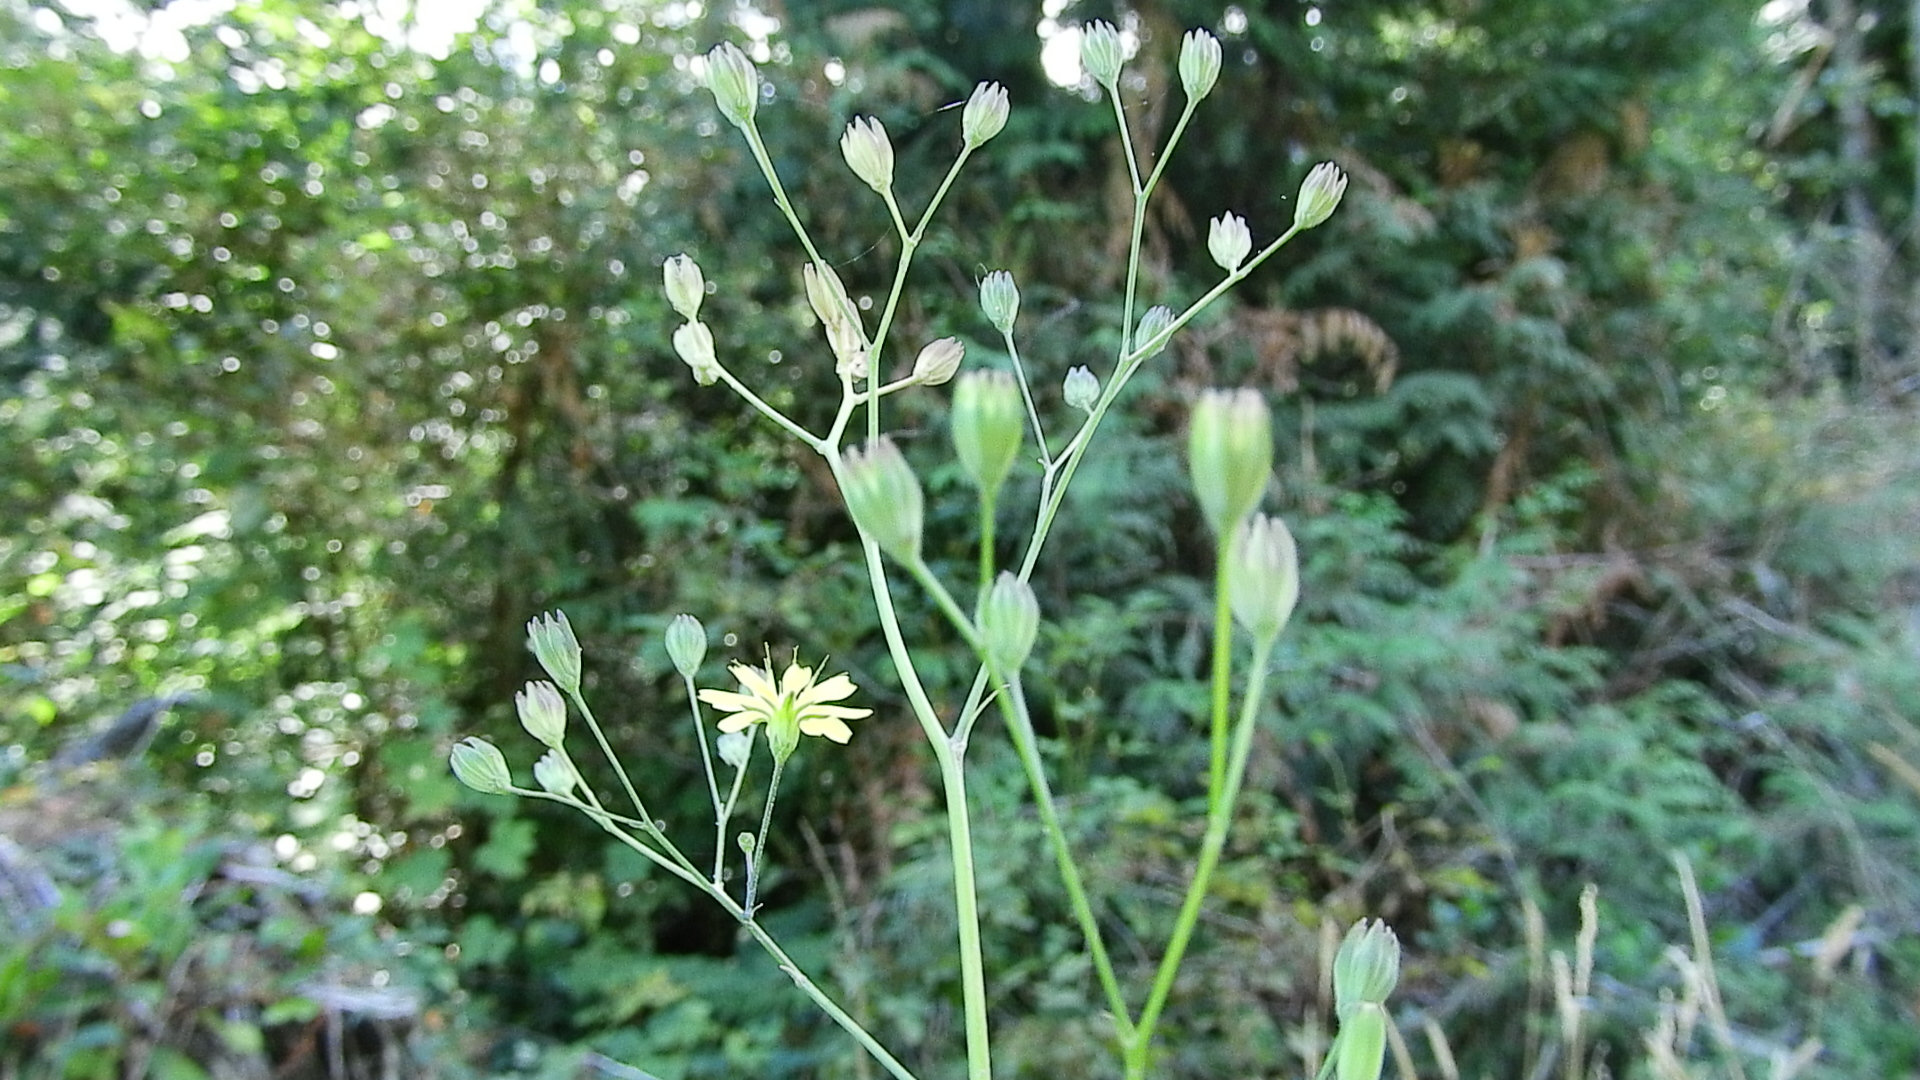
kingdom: Plantae
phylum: Tracheophyta
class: Magnoliopsida
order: Asterales
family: Asteraceae
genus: Lapsana
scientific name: Lapsana communis
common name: Nipplewort
